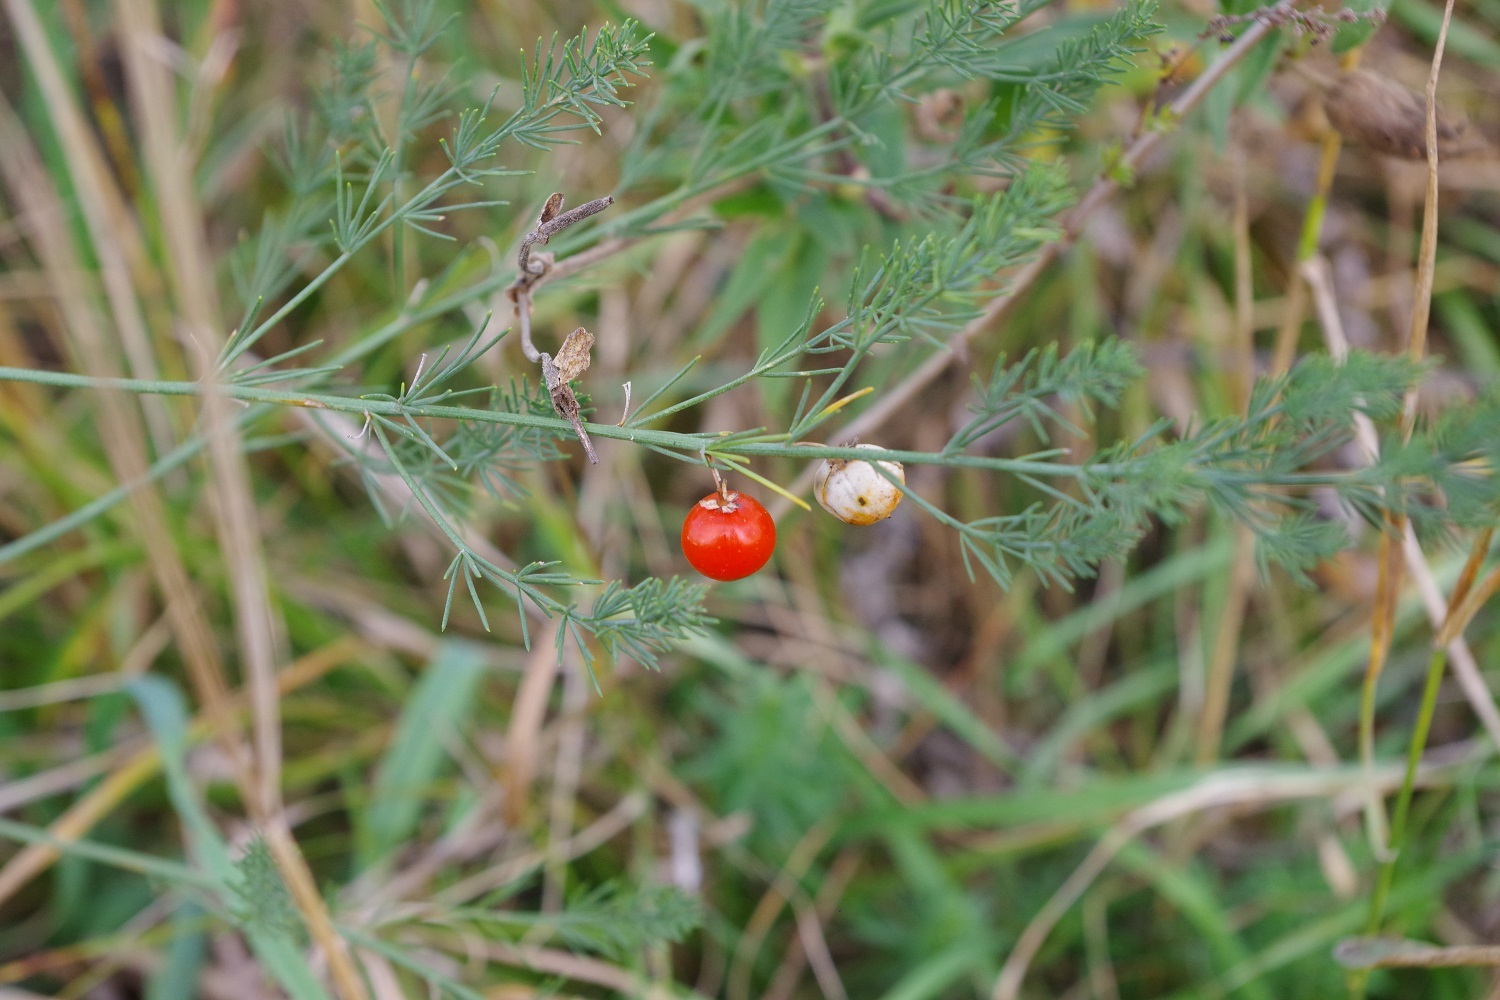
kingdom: Plantae
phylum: Tracheophyta
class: Liliopsida
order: Asparagales
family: Asparagaceae
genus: Asparagus
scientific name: Asparagus officinalis
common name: Garden asparagus
